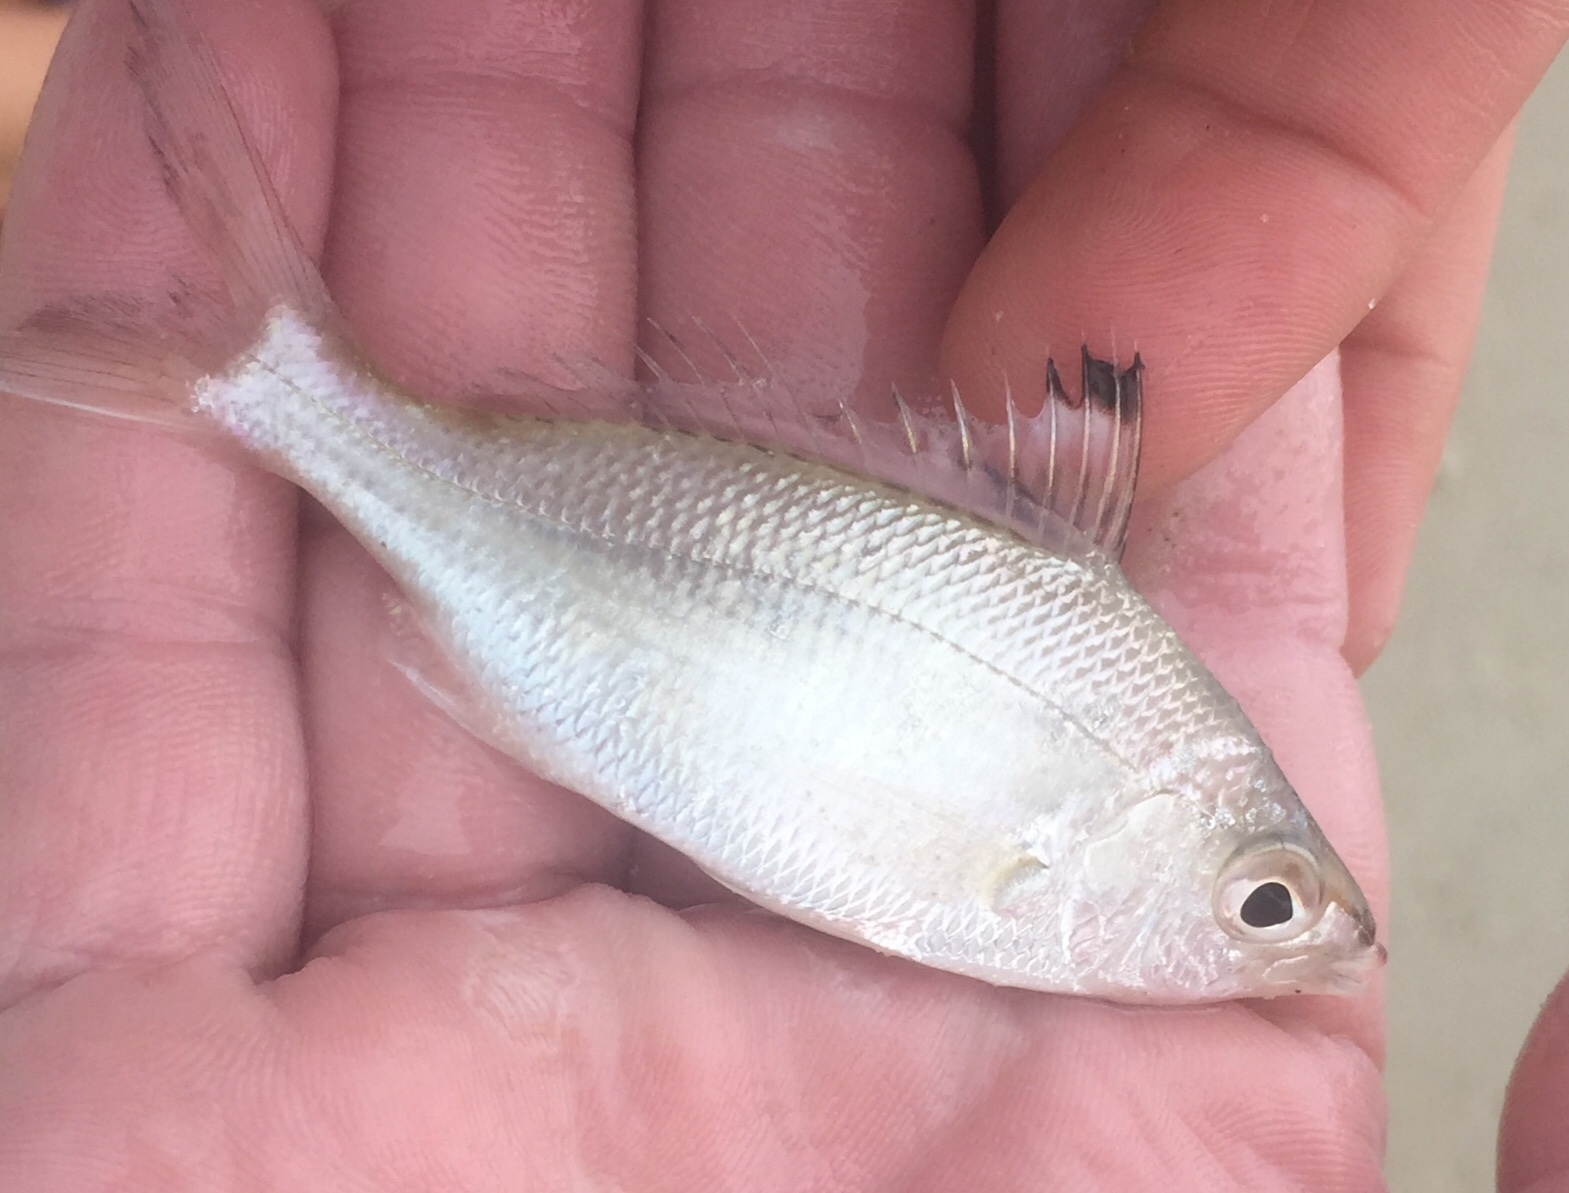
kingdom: Animalia
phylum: Chordata
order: Perciformes
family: Gerreidae
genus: Eucinostomus
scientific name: Eucinostomus melanopterus
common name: Flagfin mojarra
